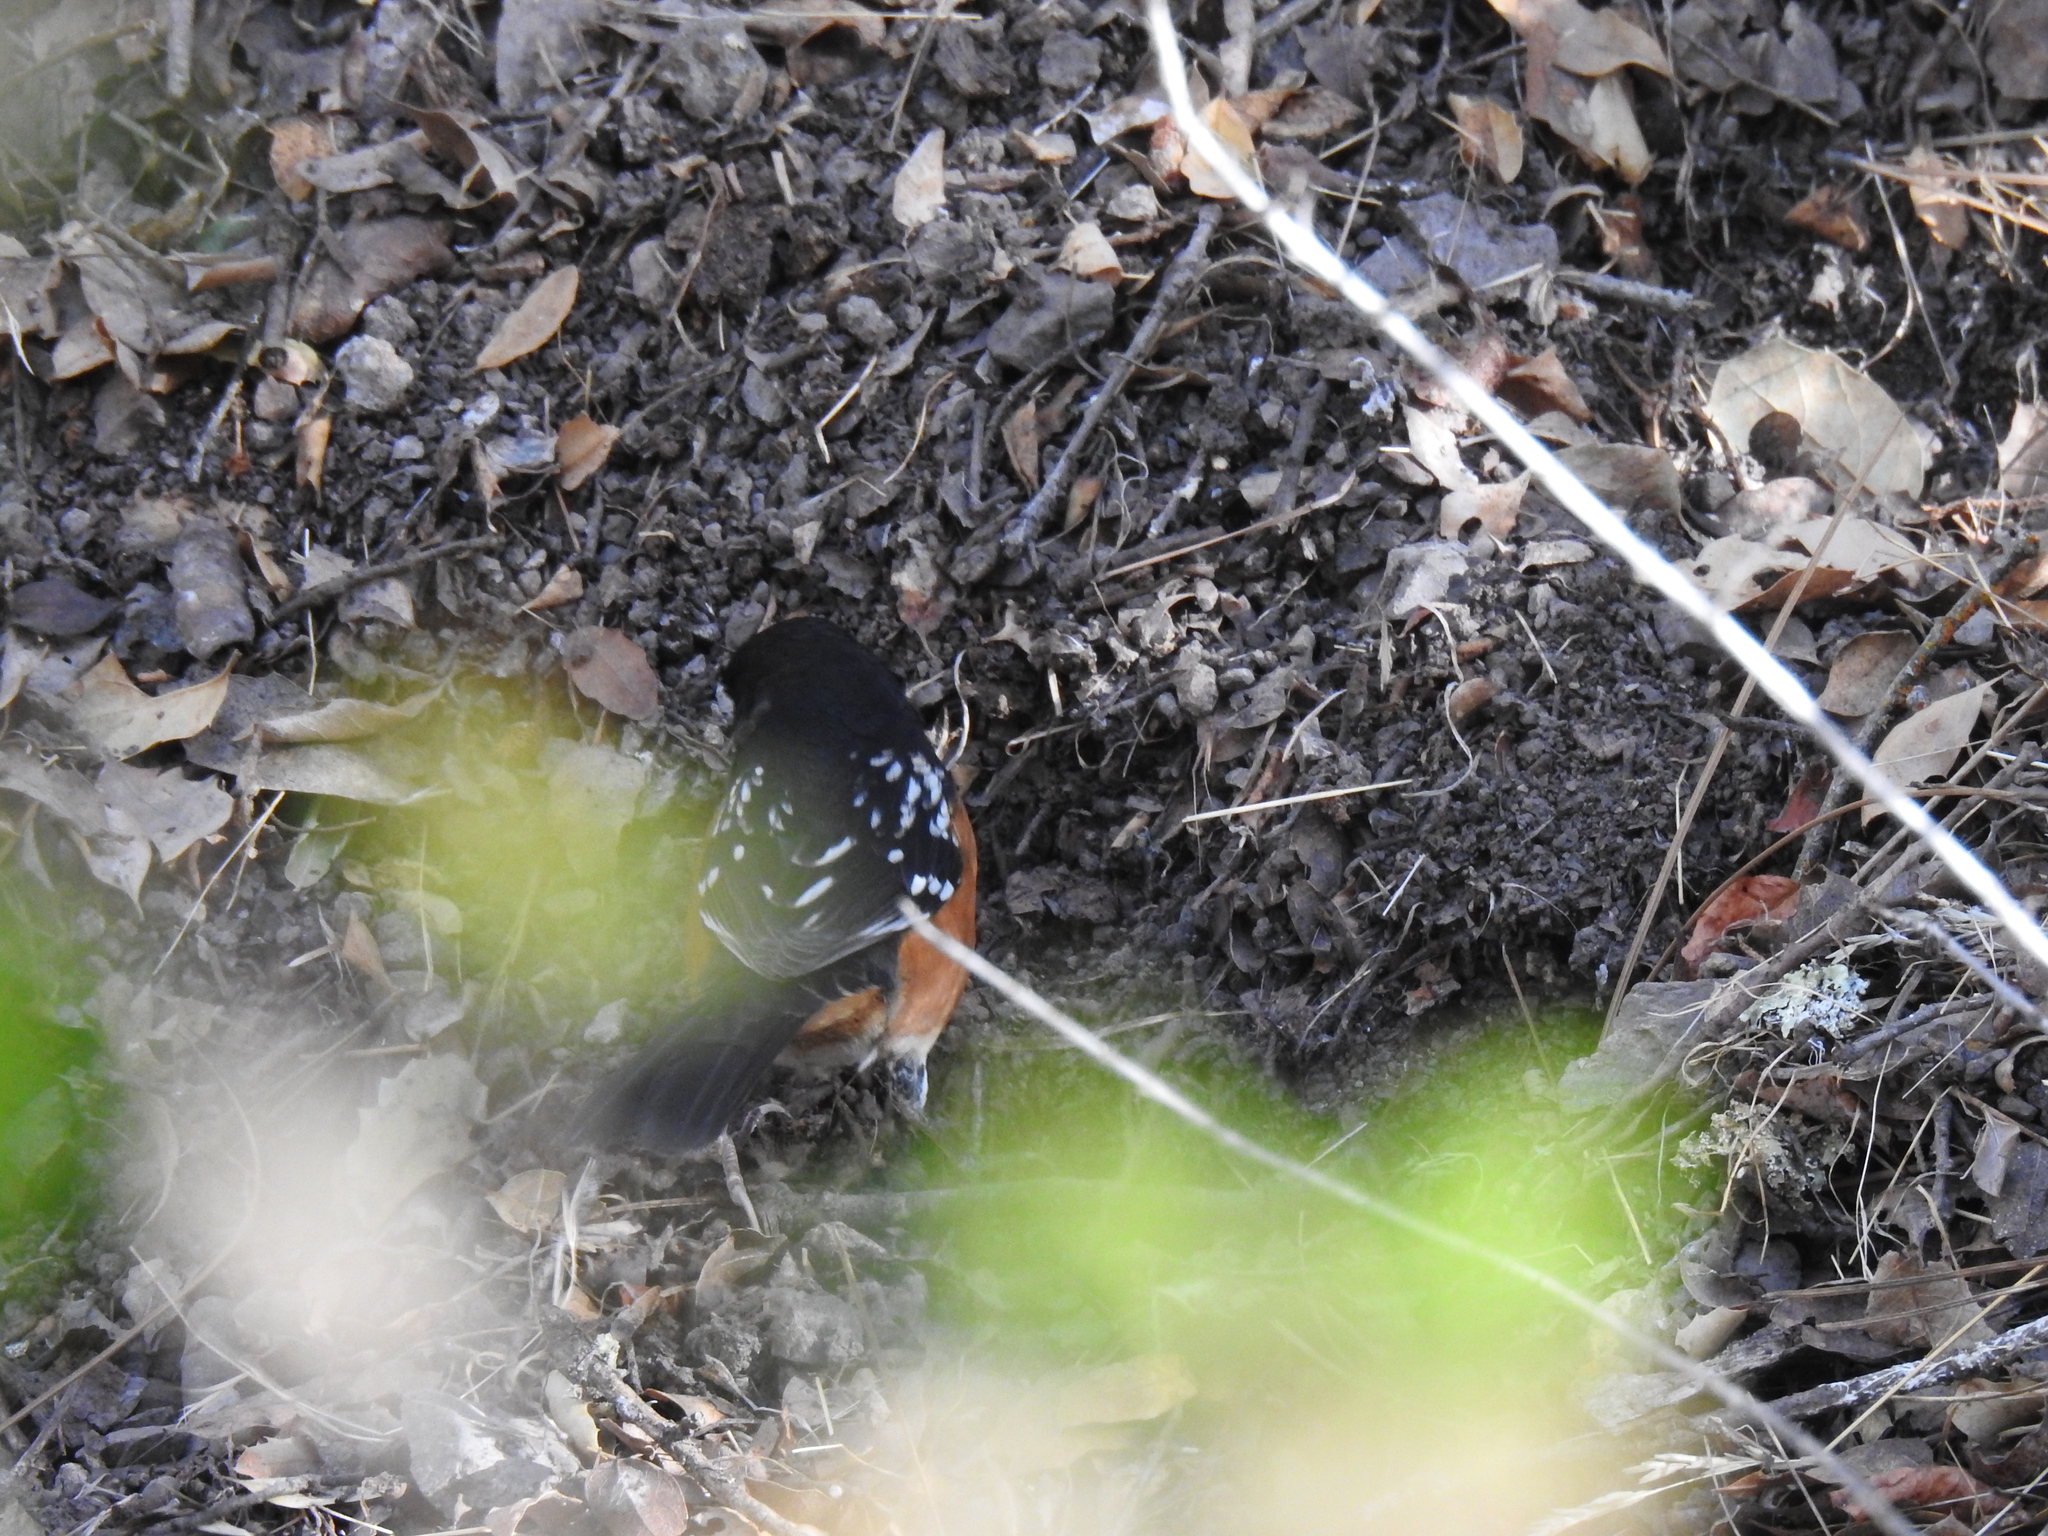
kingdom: Animalia
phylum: Chordata
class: Aves
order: Passeriformes
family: Passerellidae
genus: Pipilo
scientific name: Pipilo maculatus
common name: Spotted towhee
